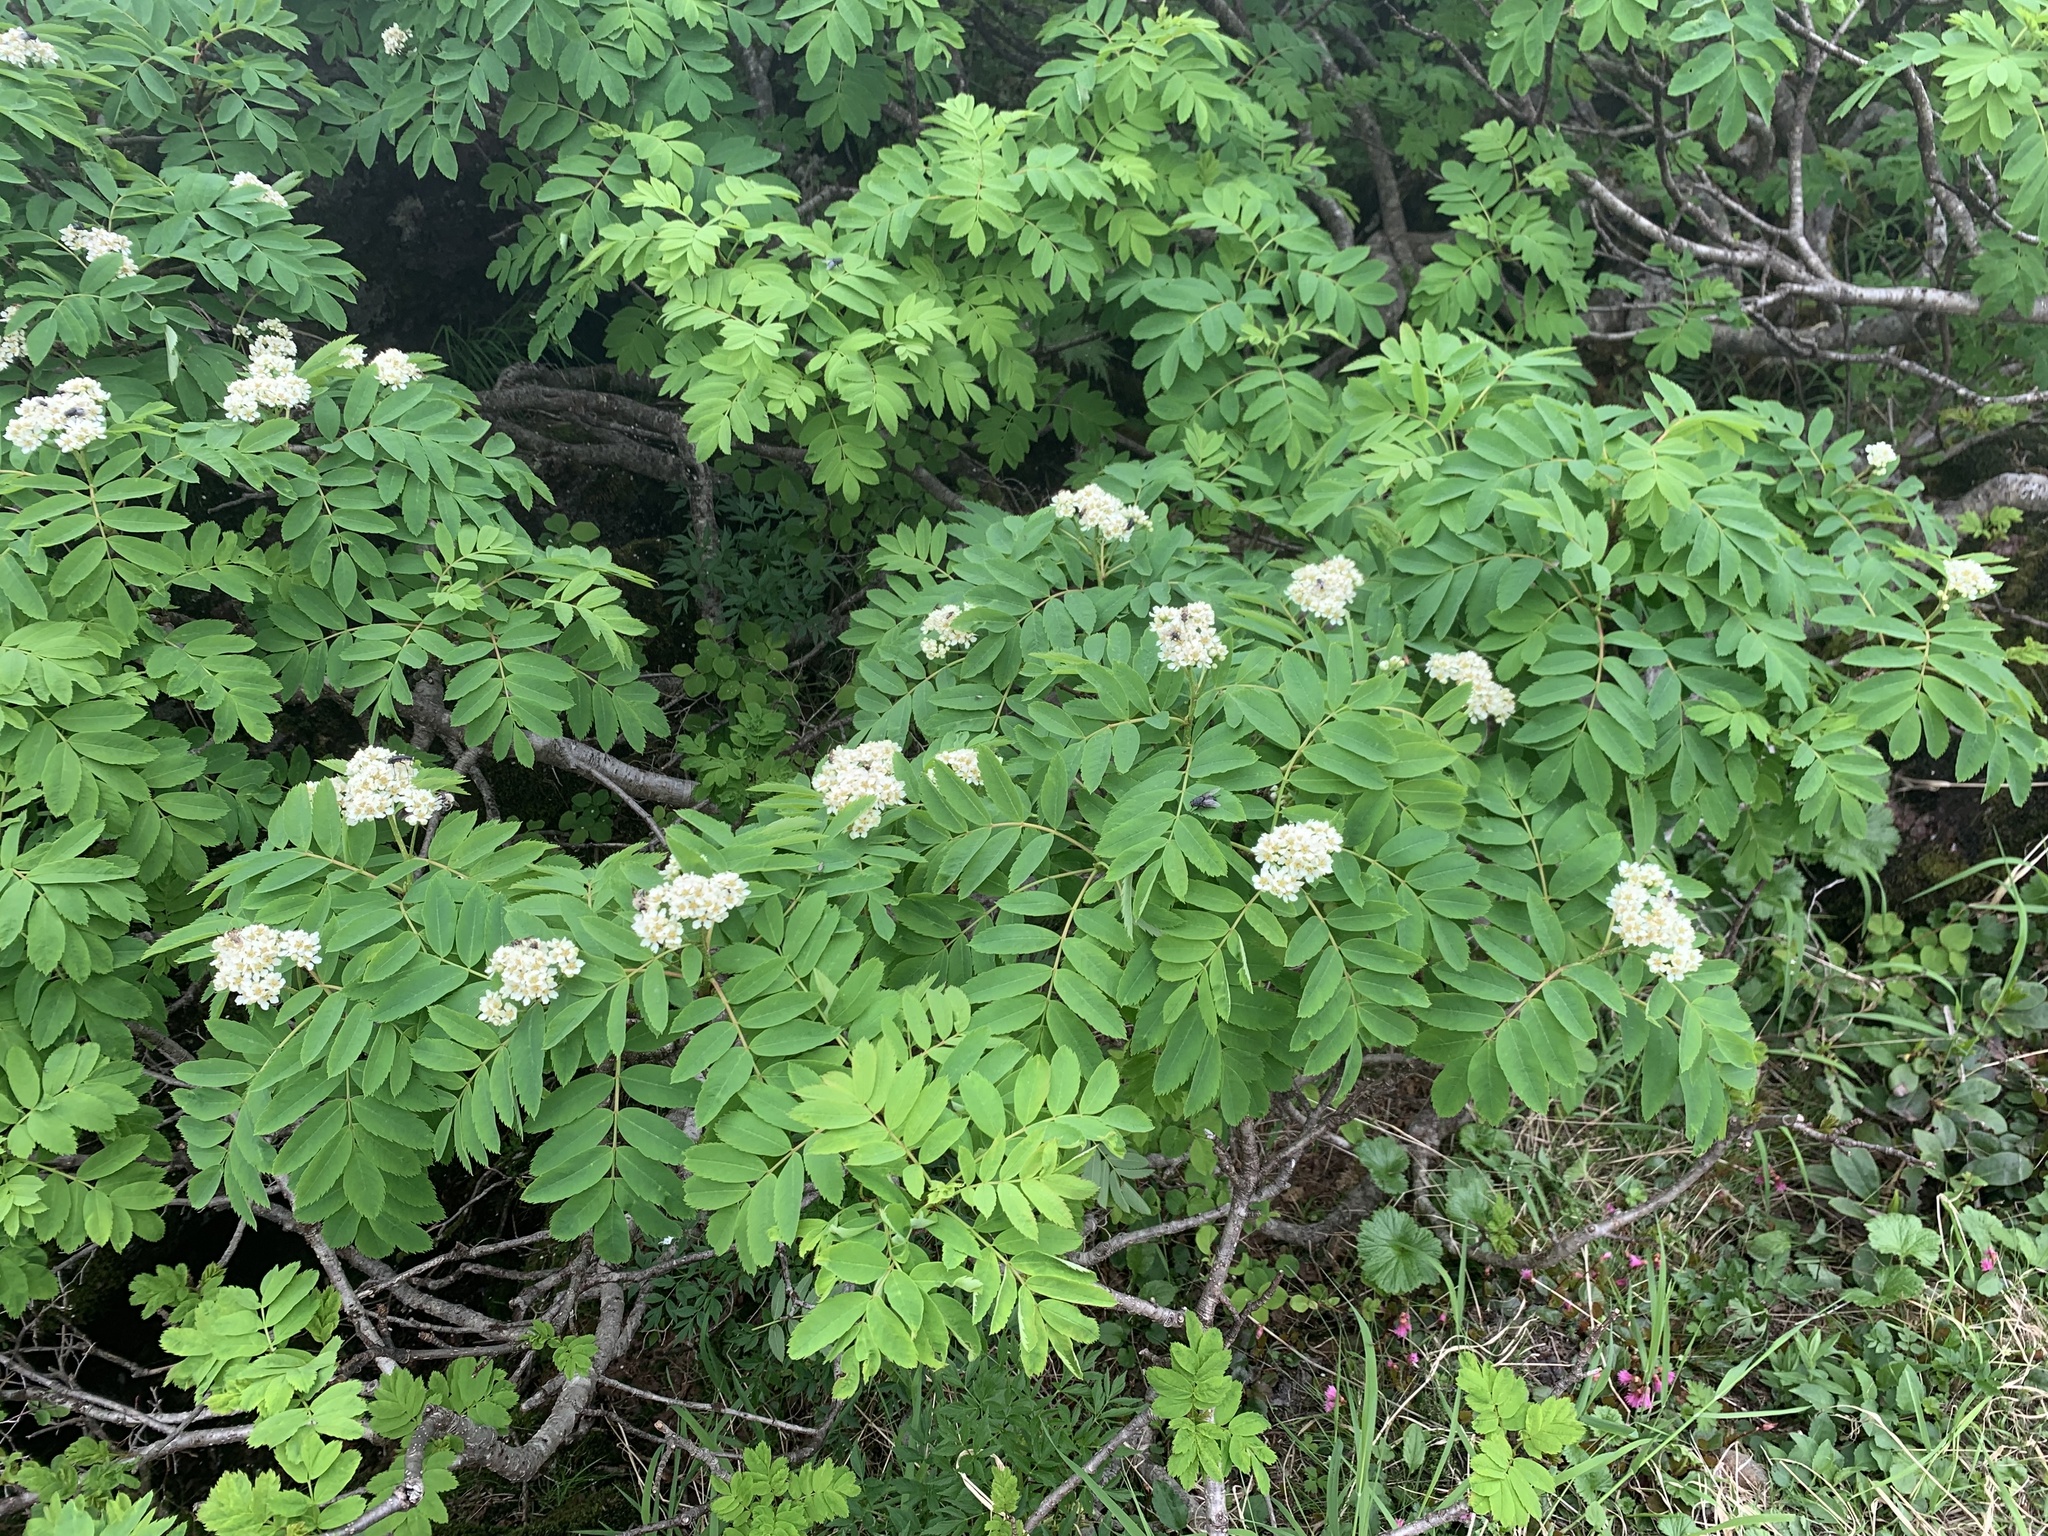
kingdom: Plantae
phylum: Tracheophyta
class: Magnoliopsida
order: Rosales
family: Rosaceae
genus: Sorbus
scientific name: Sorbus matsumurana
